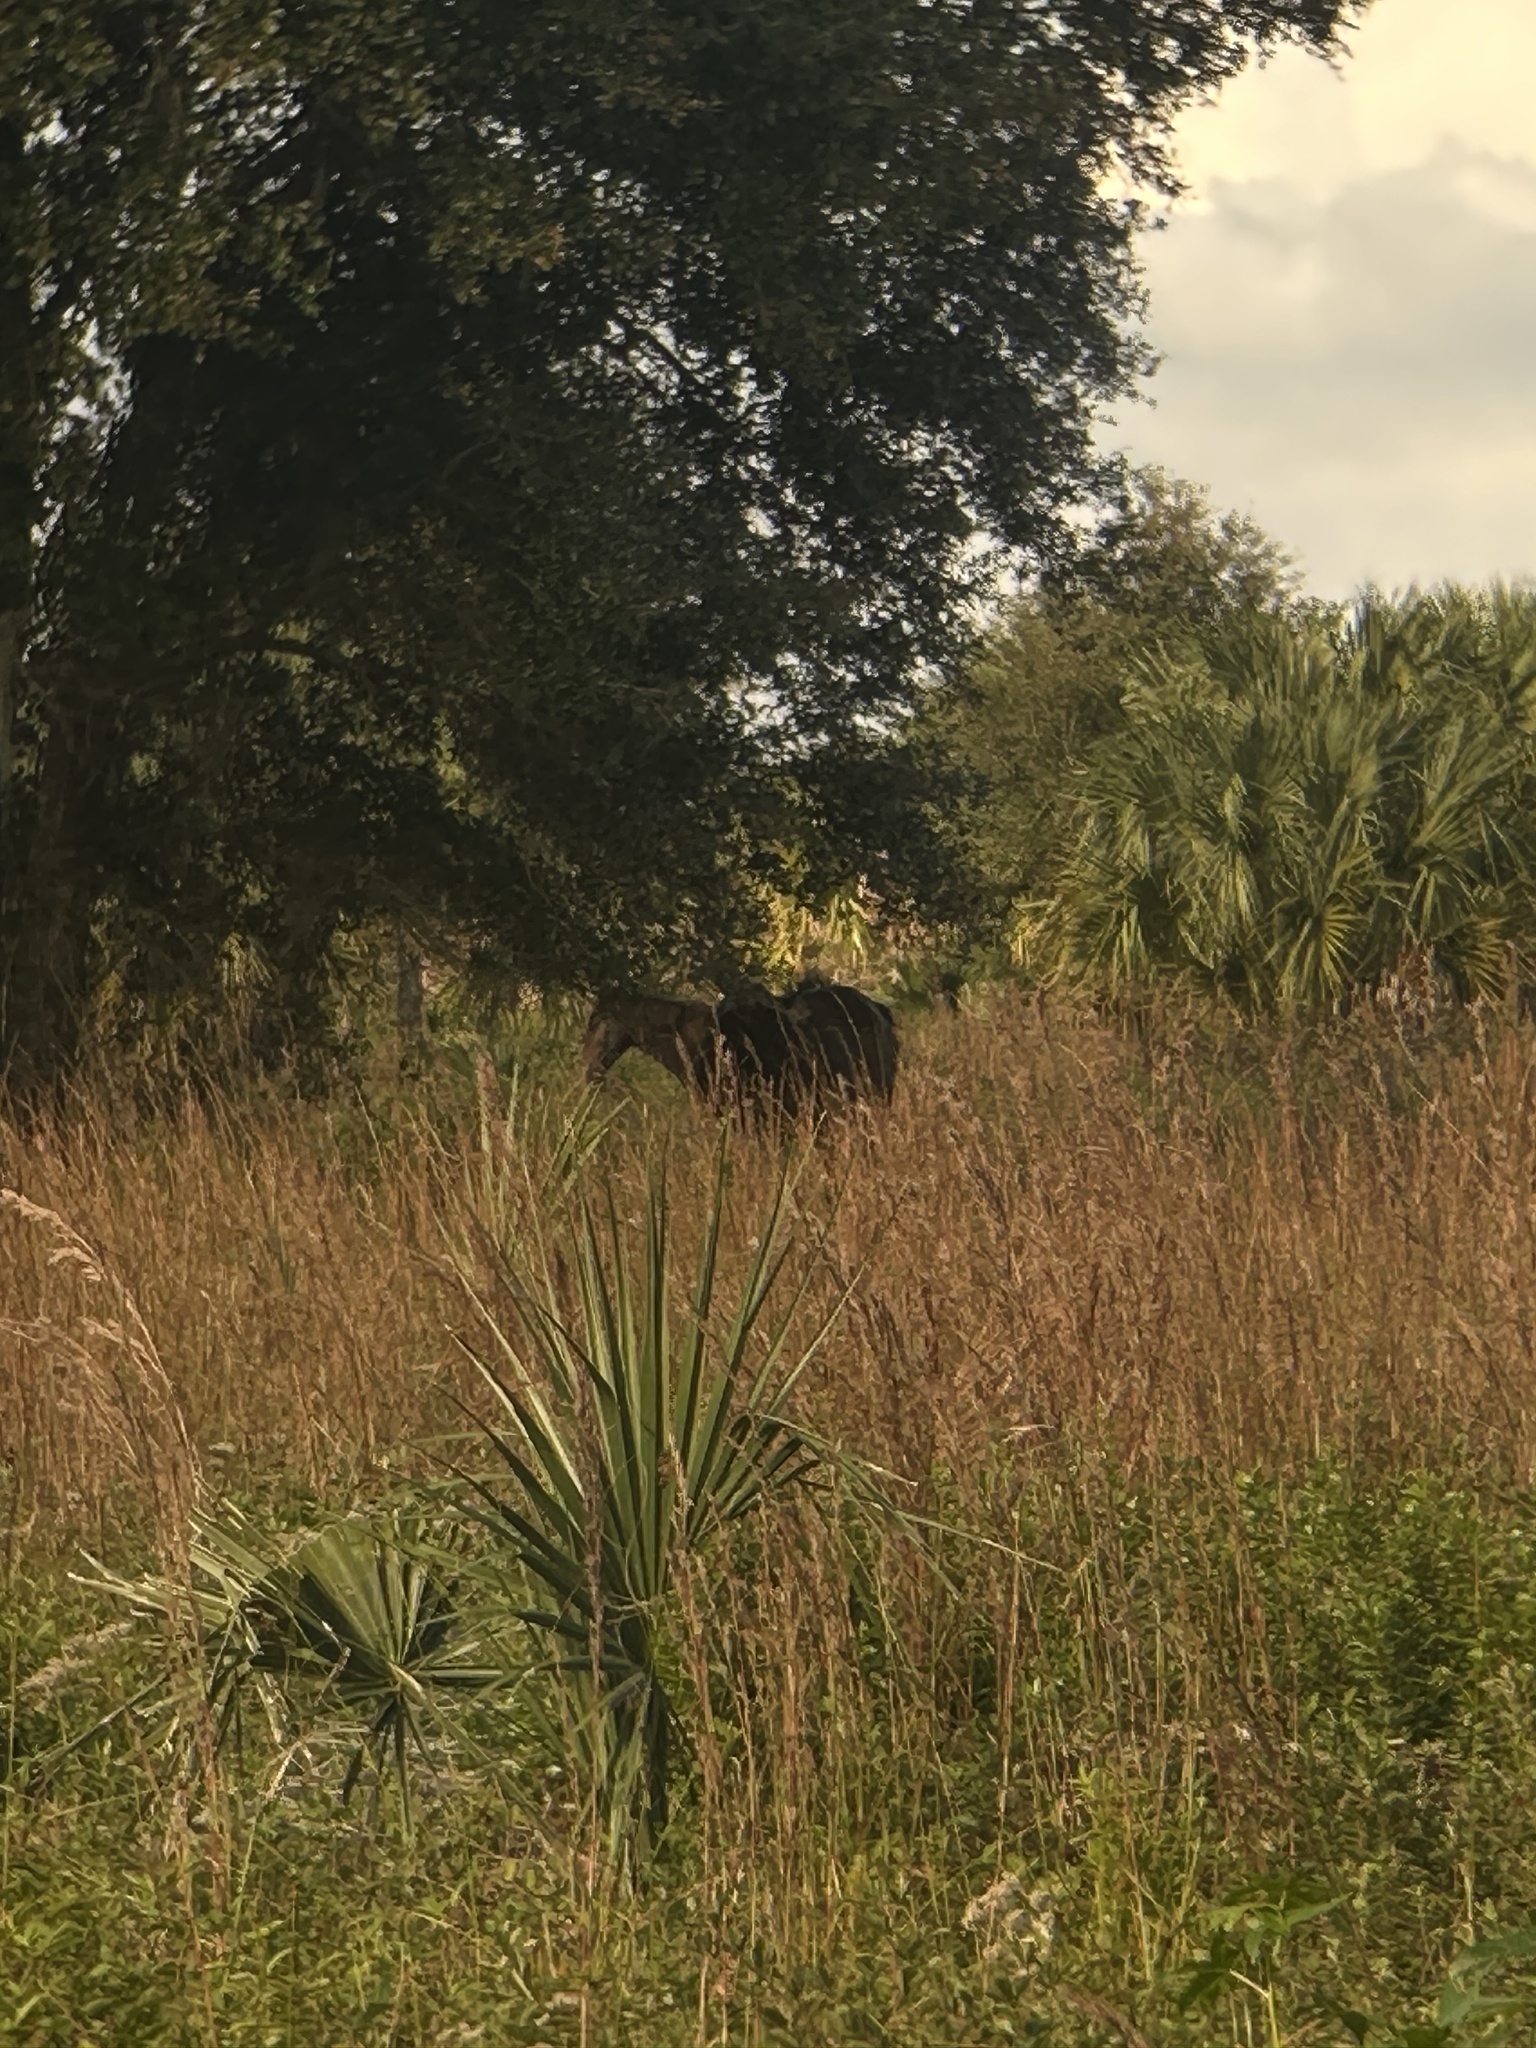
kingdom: Animalia
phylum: Chordata
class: Mammalia
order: Perissodactyla
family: Equidae
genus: Equus
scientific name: Equus caballus
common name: Horse
